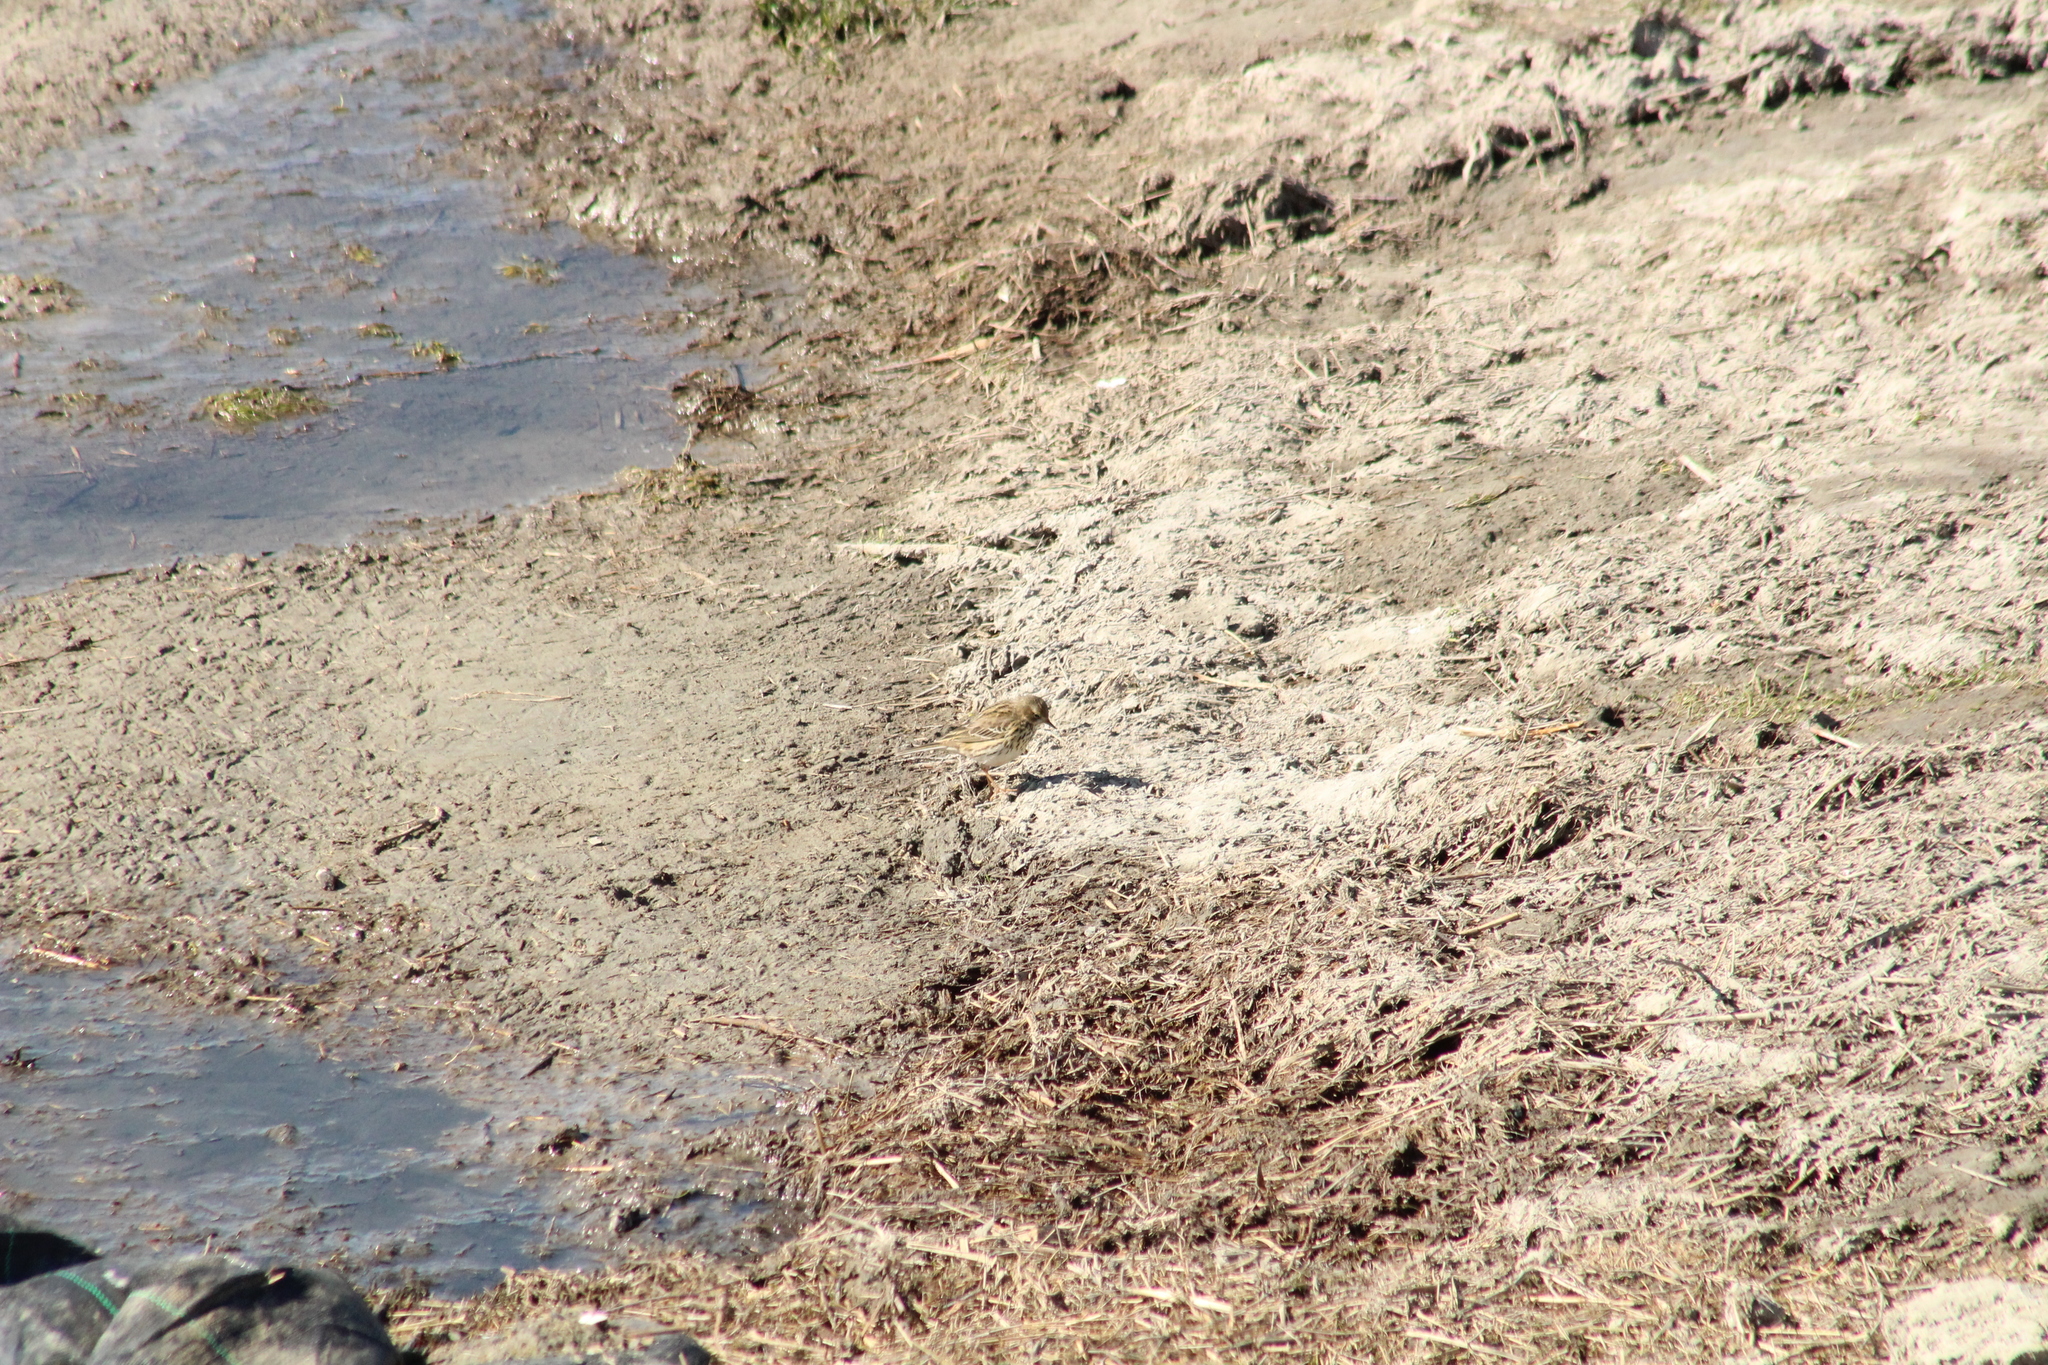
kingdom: Animalia
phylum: Chordata
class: Aves
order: Passeriformes
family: Motacillidae
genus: Anthus
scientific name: Anthus pratensis
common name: Meadow pipit
